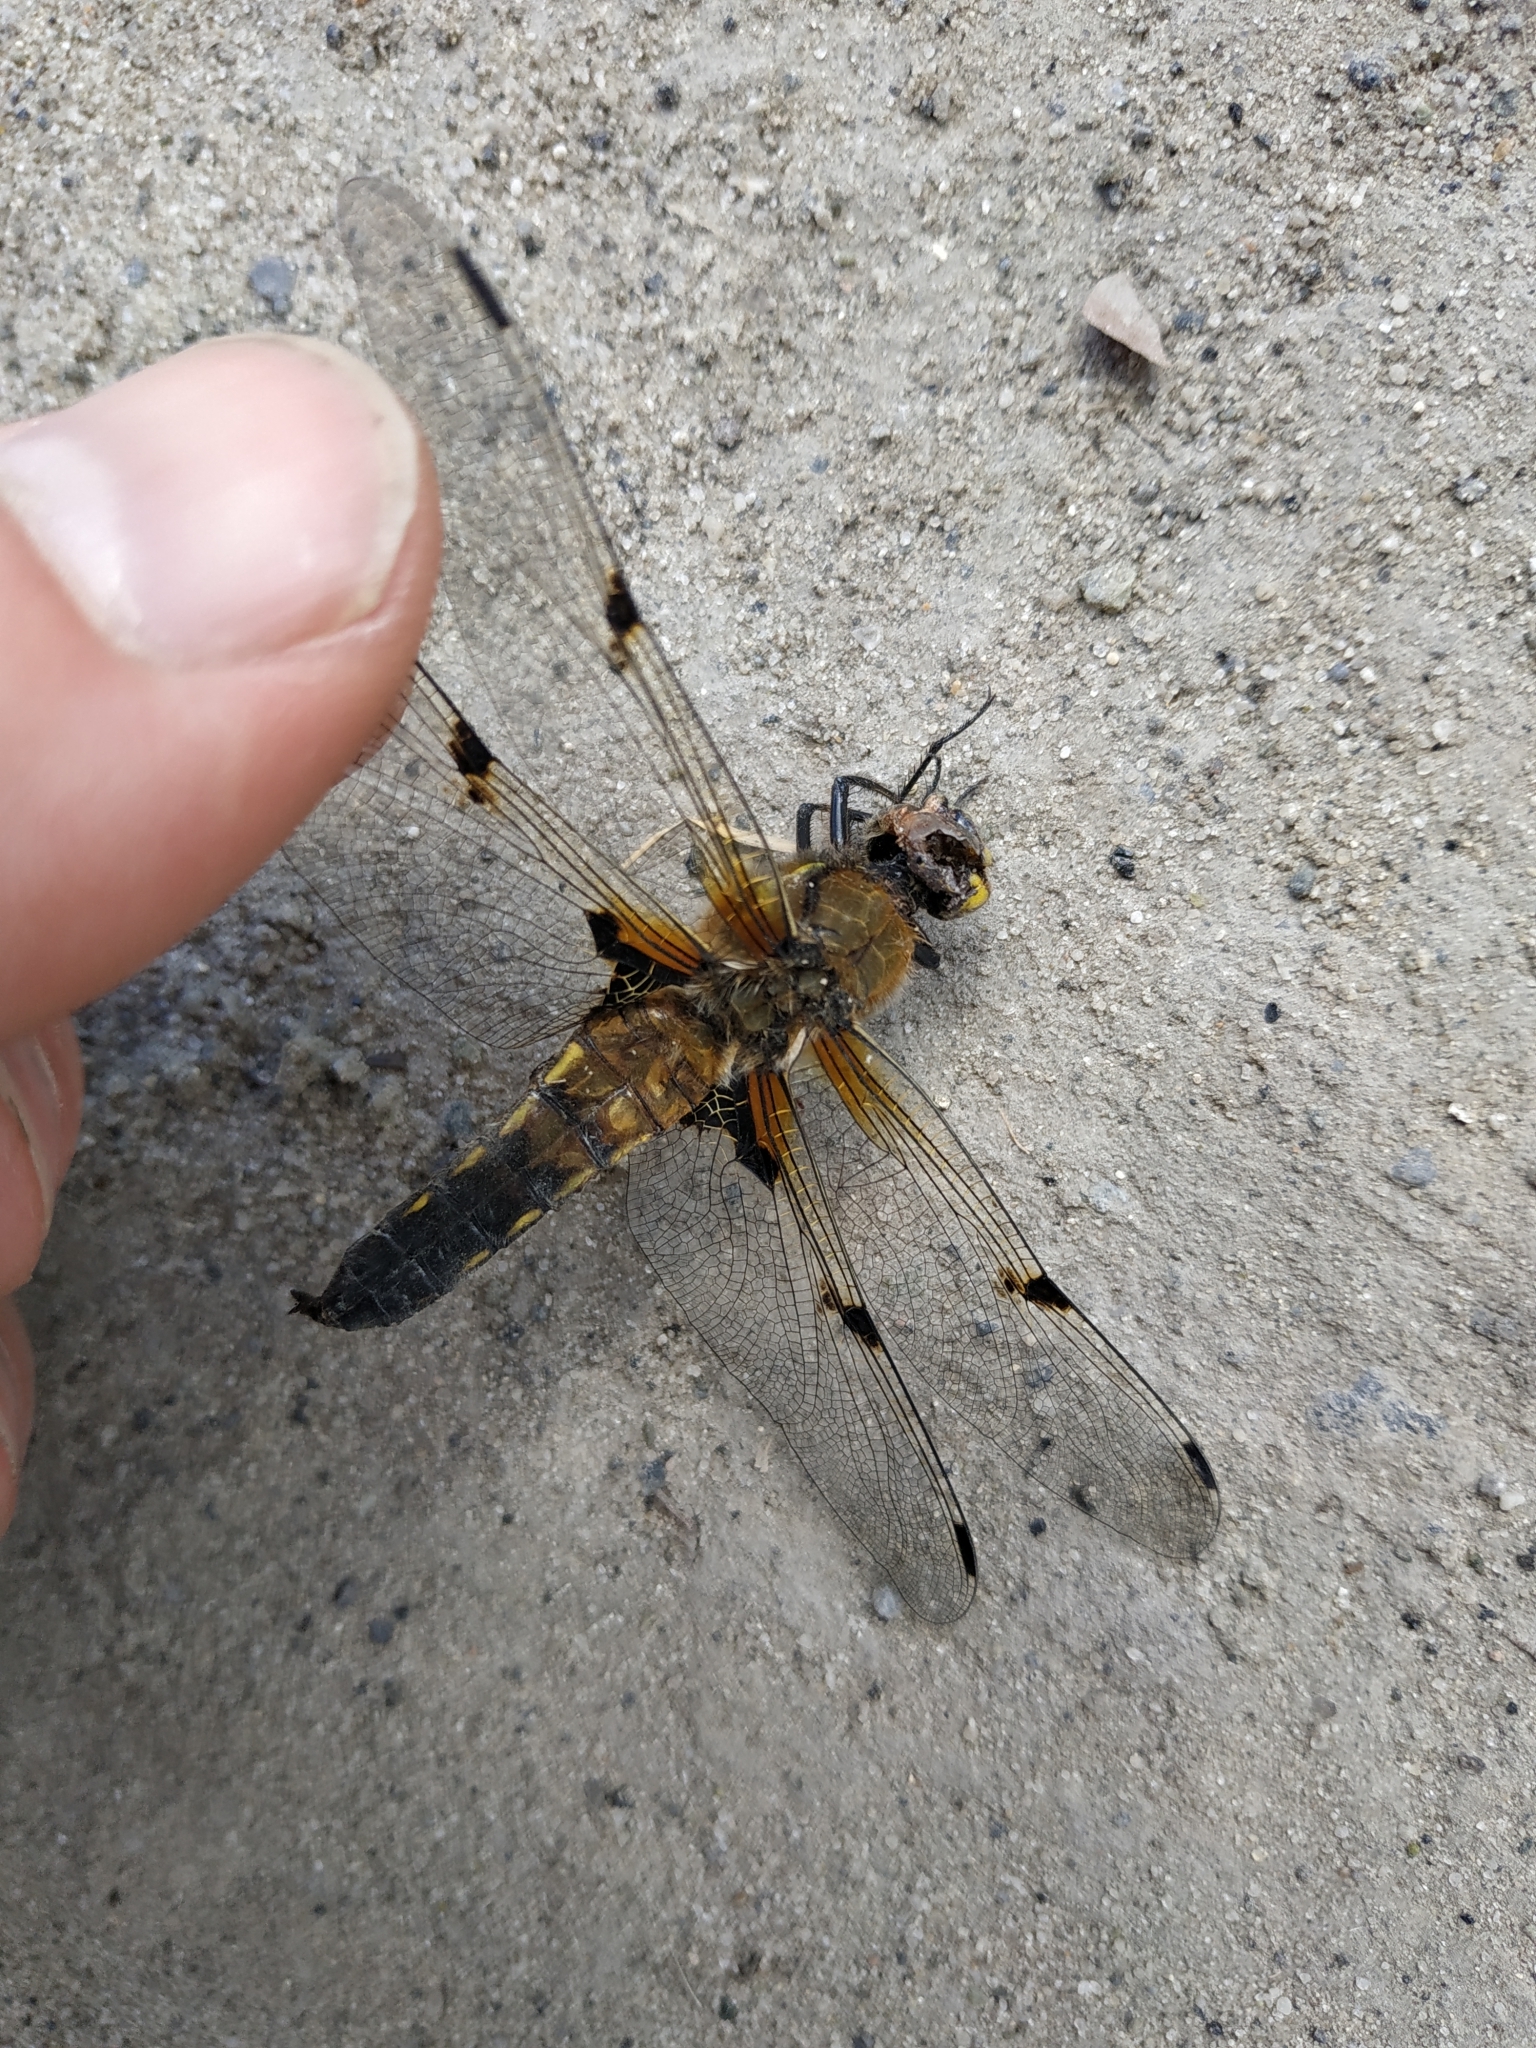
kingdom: Animalia
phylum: Arthropoda
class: Insecta
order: Odonata
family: Libellulidae
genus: Libellula
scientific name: Libellula quadrimaculata
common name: Four-spotted chaser
